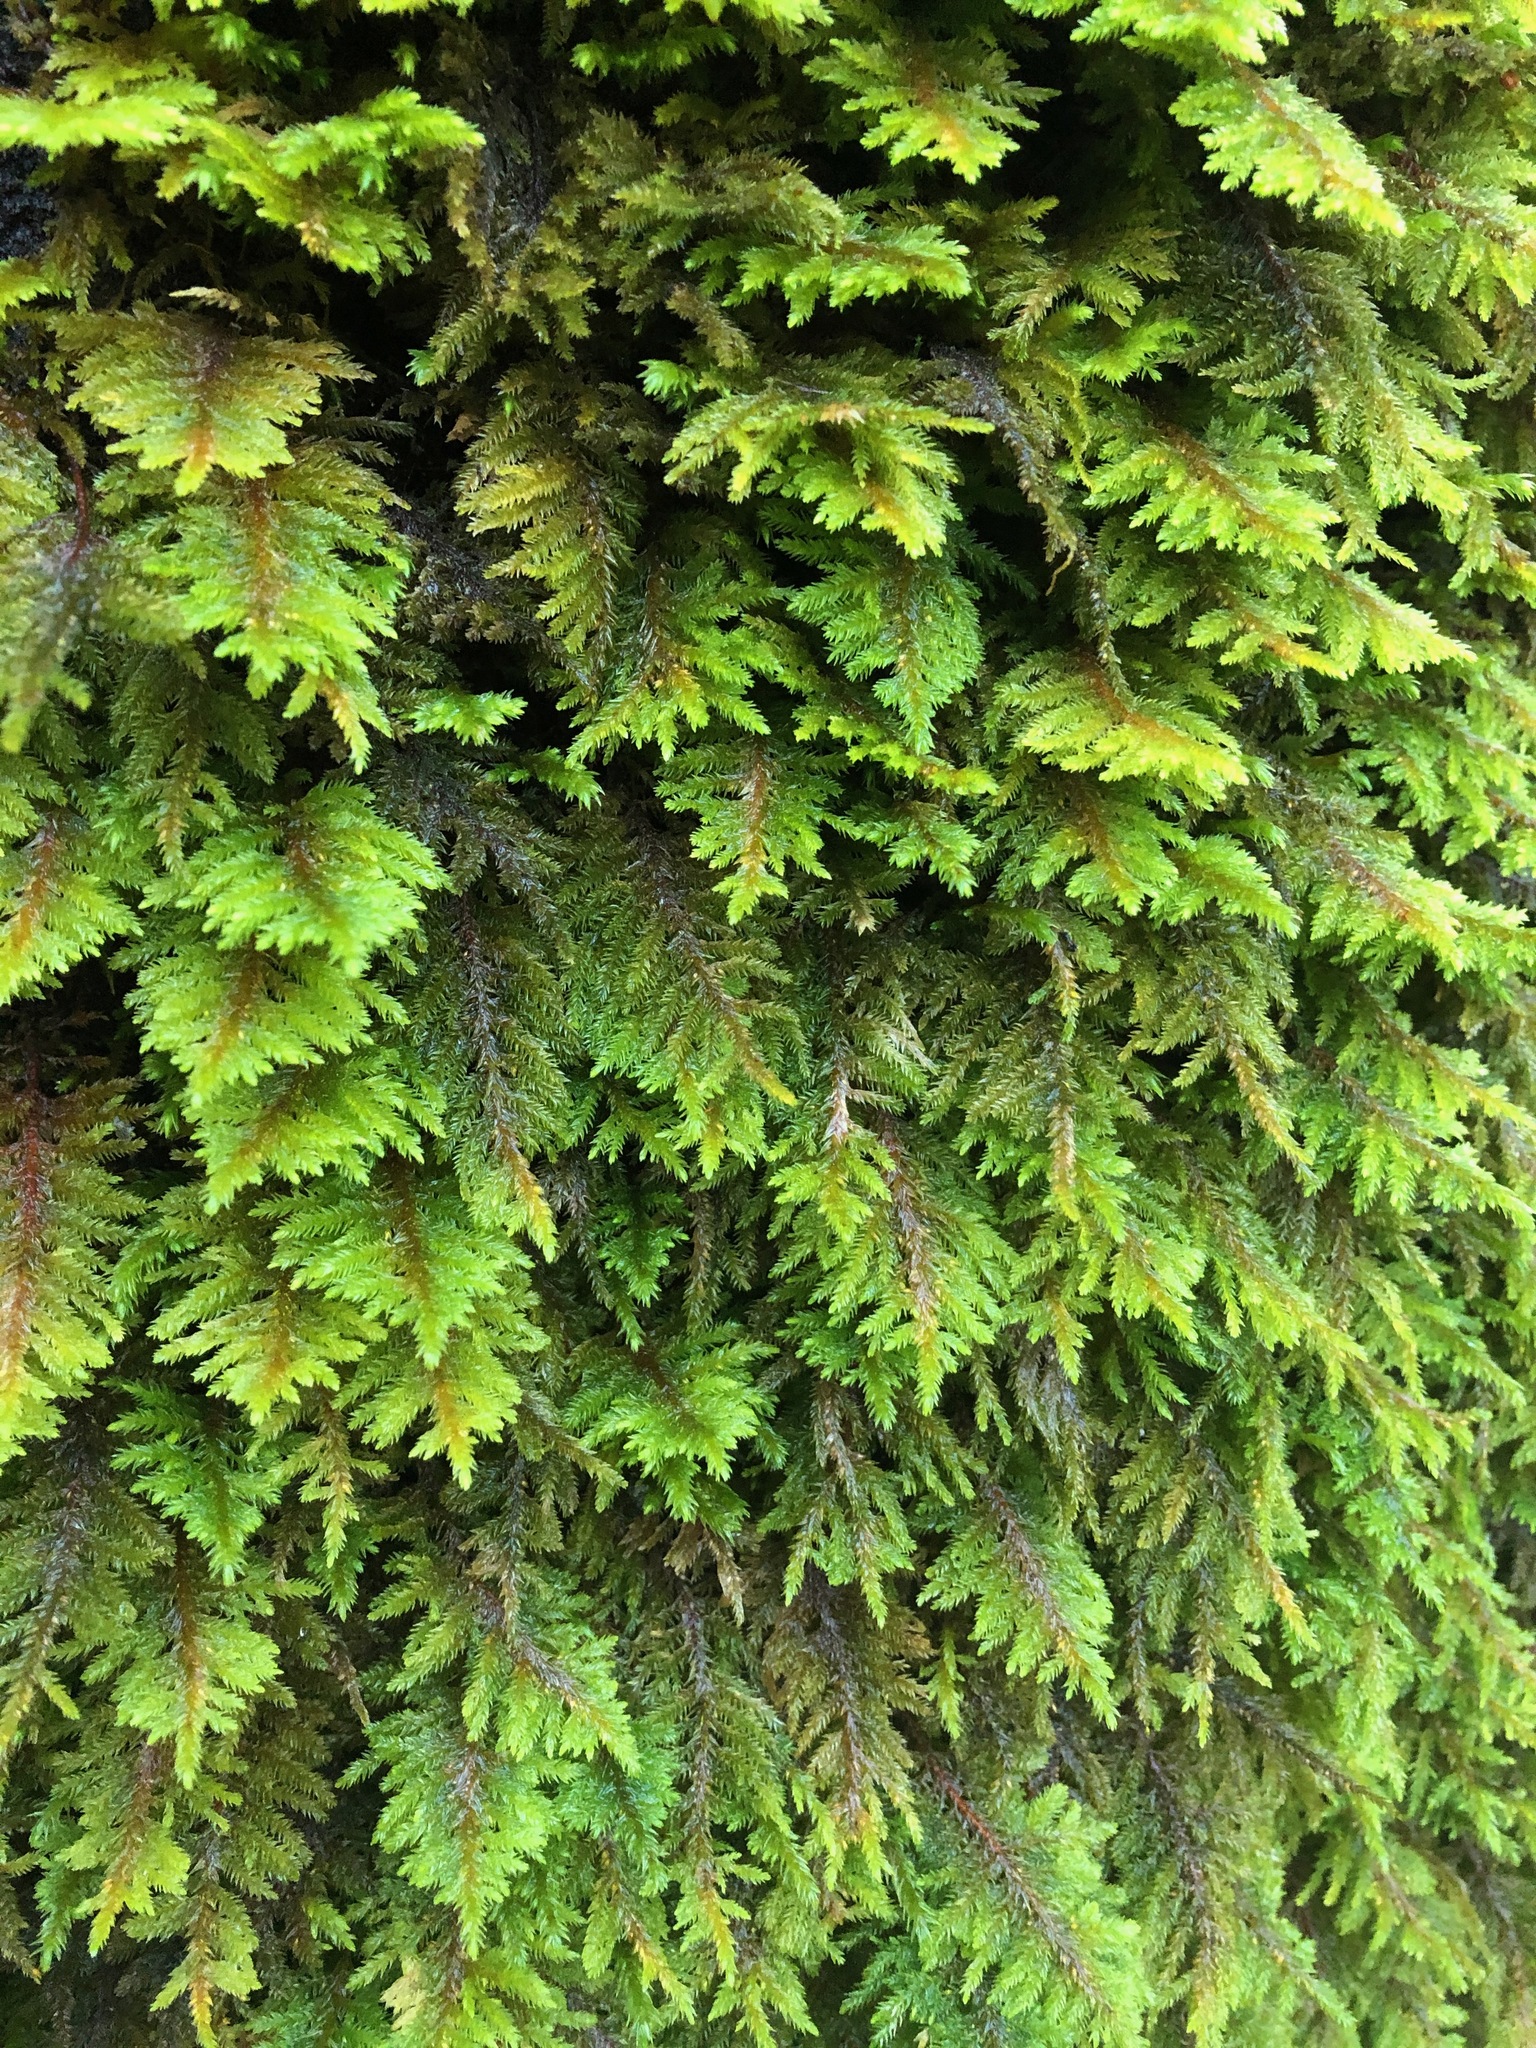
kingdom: Plantae
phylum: Bryophyta
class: Bryopsida
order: Hypnales
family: Cryphaeaceae
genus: Dendroalsia
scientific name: Dendroalsia abietina
